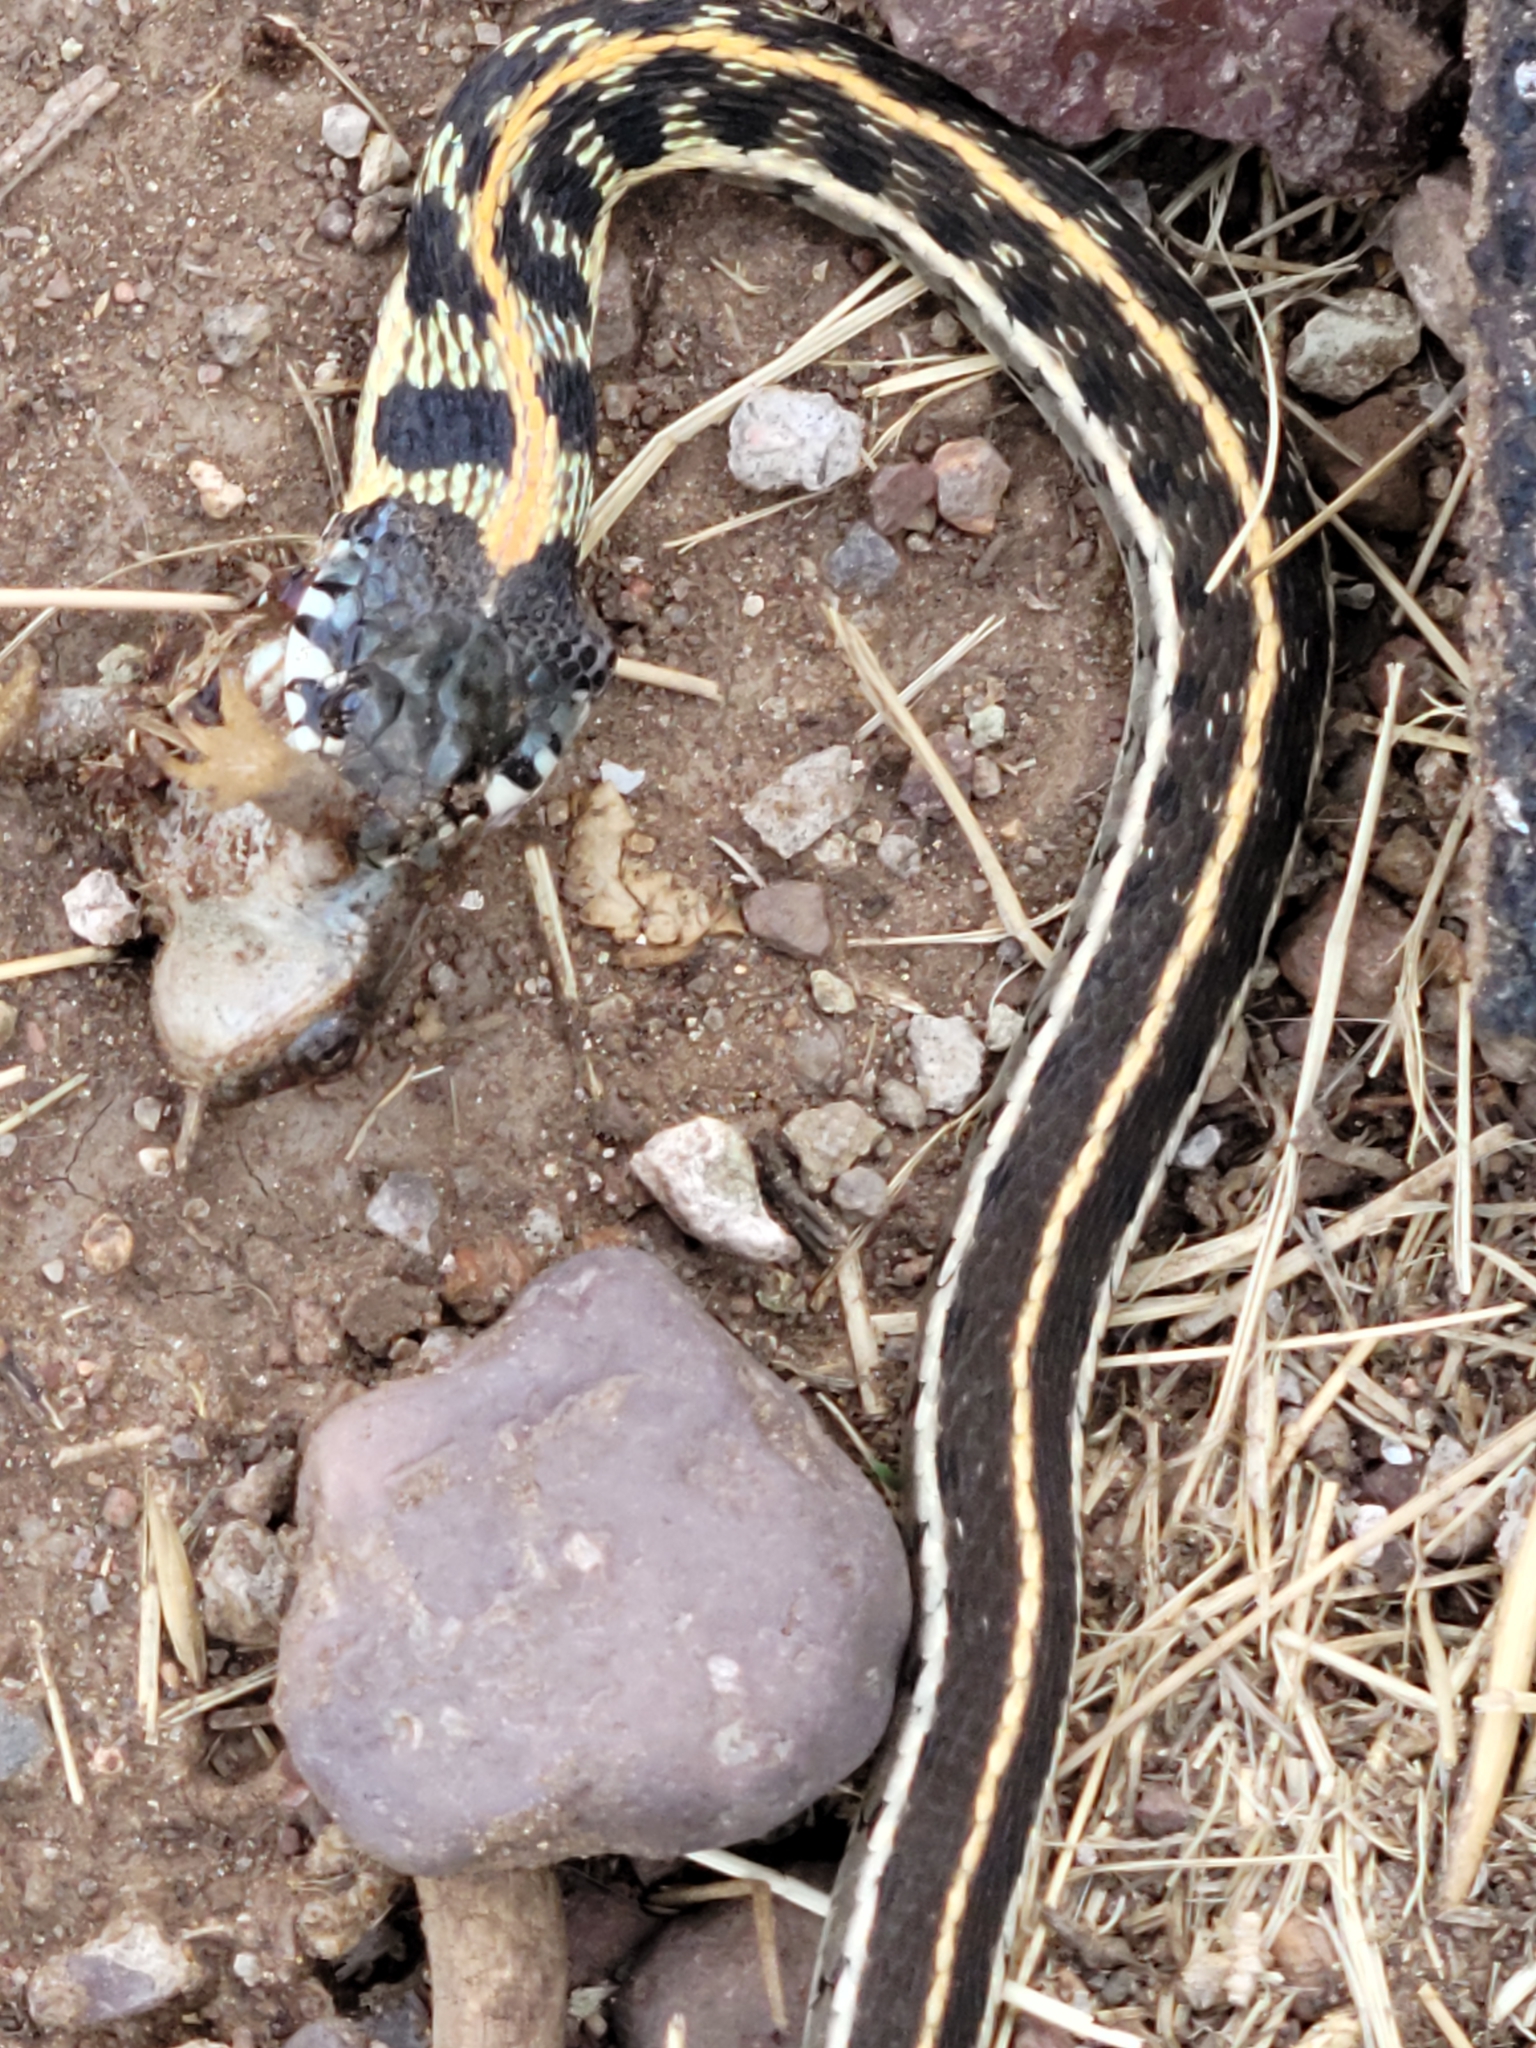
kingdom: Animalia
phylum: Chordata
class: Squamata
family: Colubridae
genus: Thamnophis
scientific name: Thamnophis cyrtopsis
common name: Black-necked gartersnake
